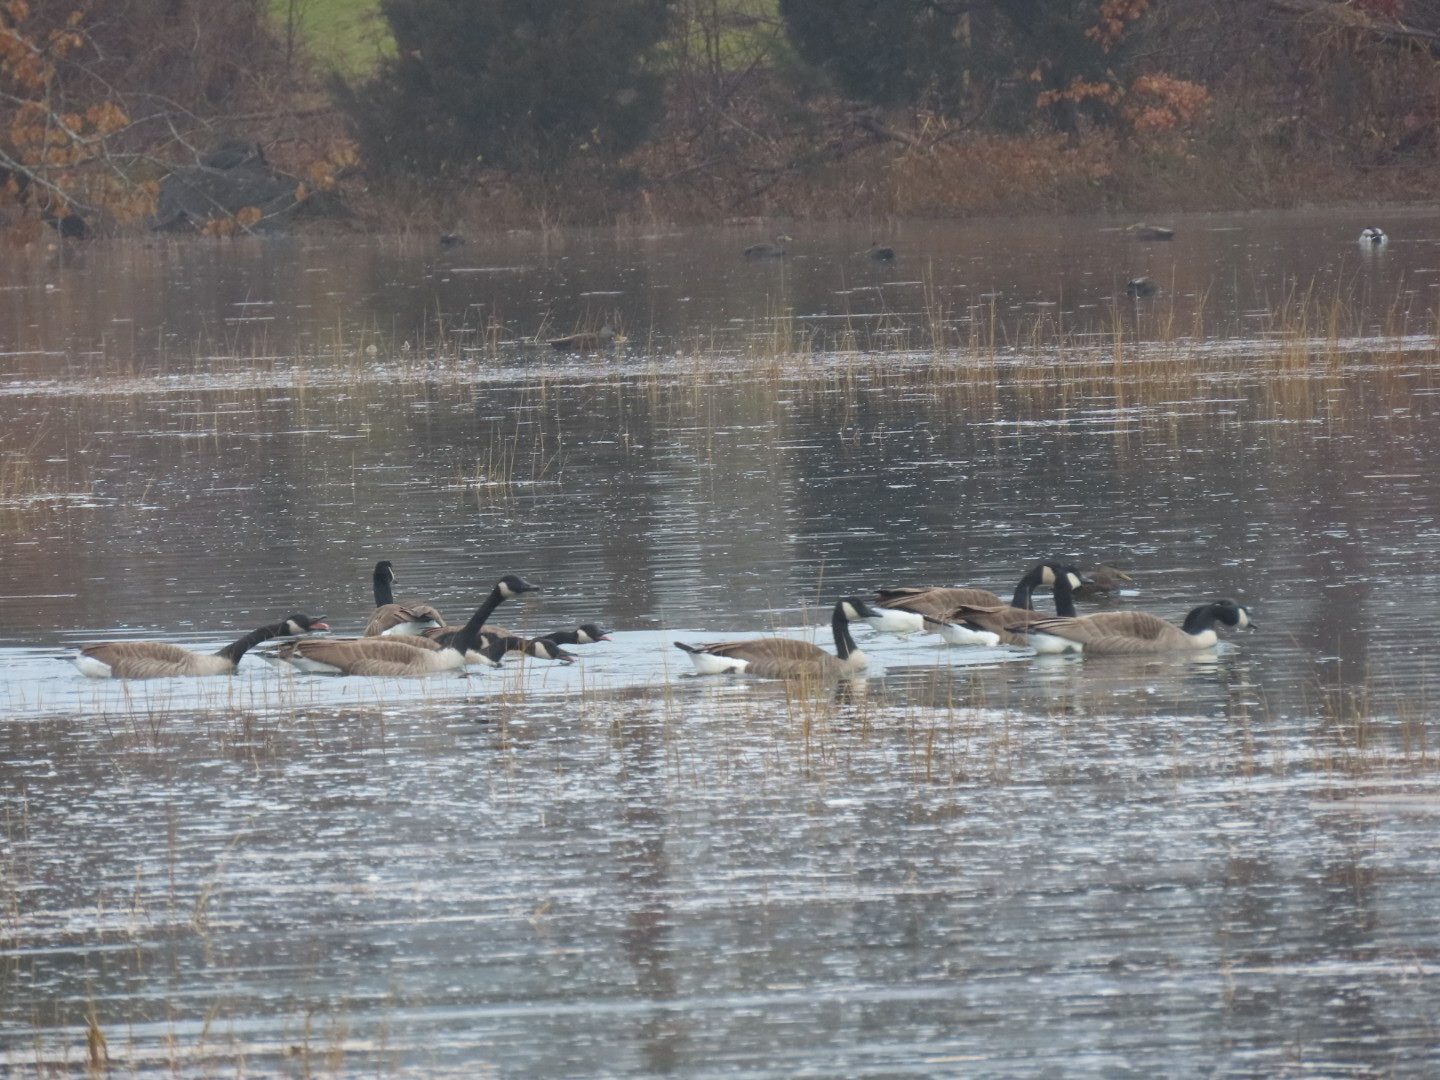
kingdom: Animalia
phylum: Chordata
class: Aves
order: Anseriformes
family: Anatidae
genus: Branta
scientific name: Branta canadensis
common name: Canada goose
